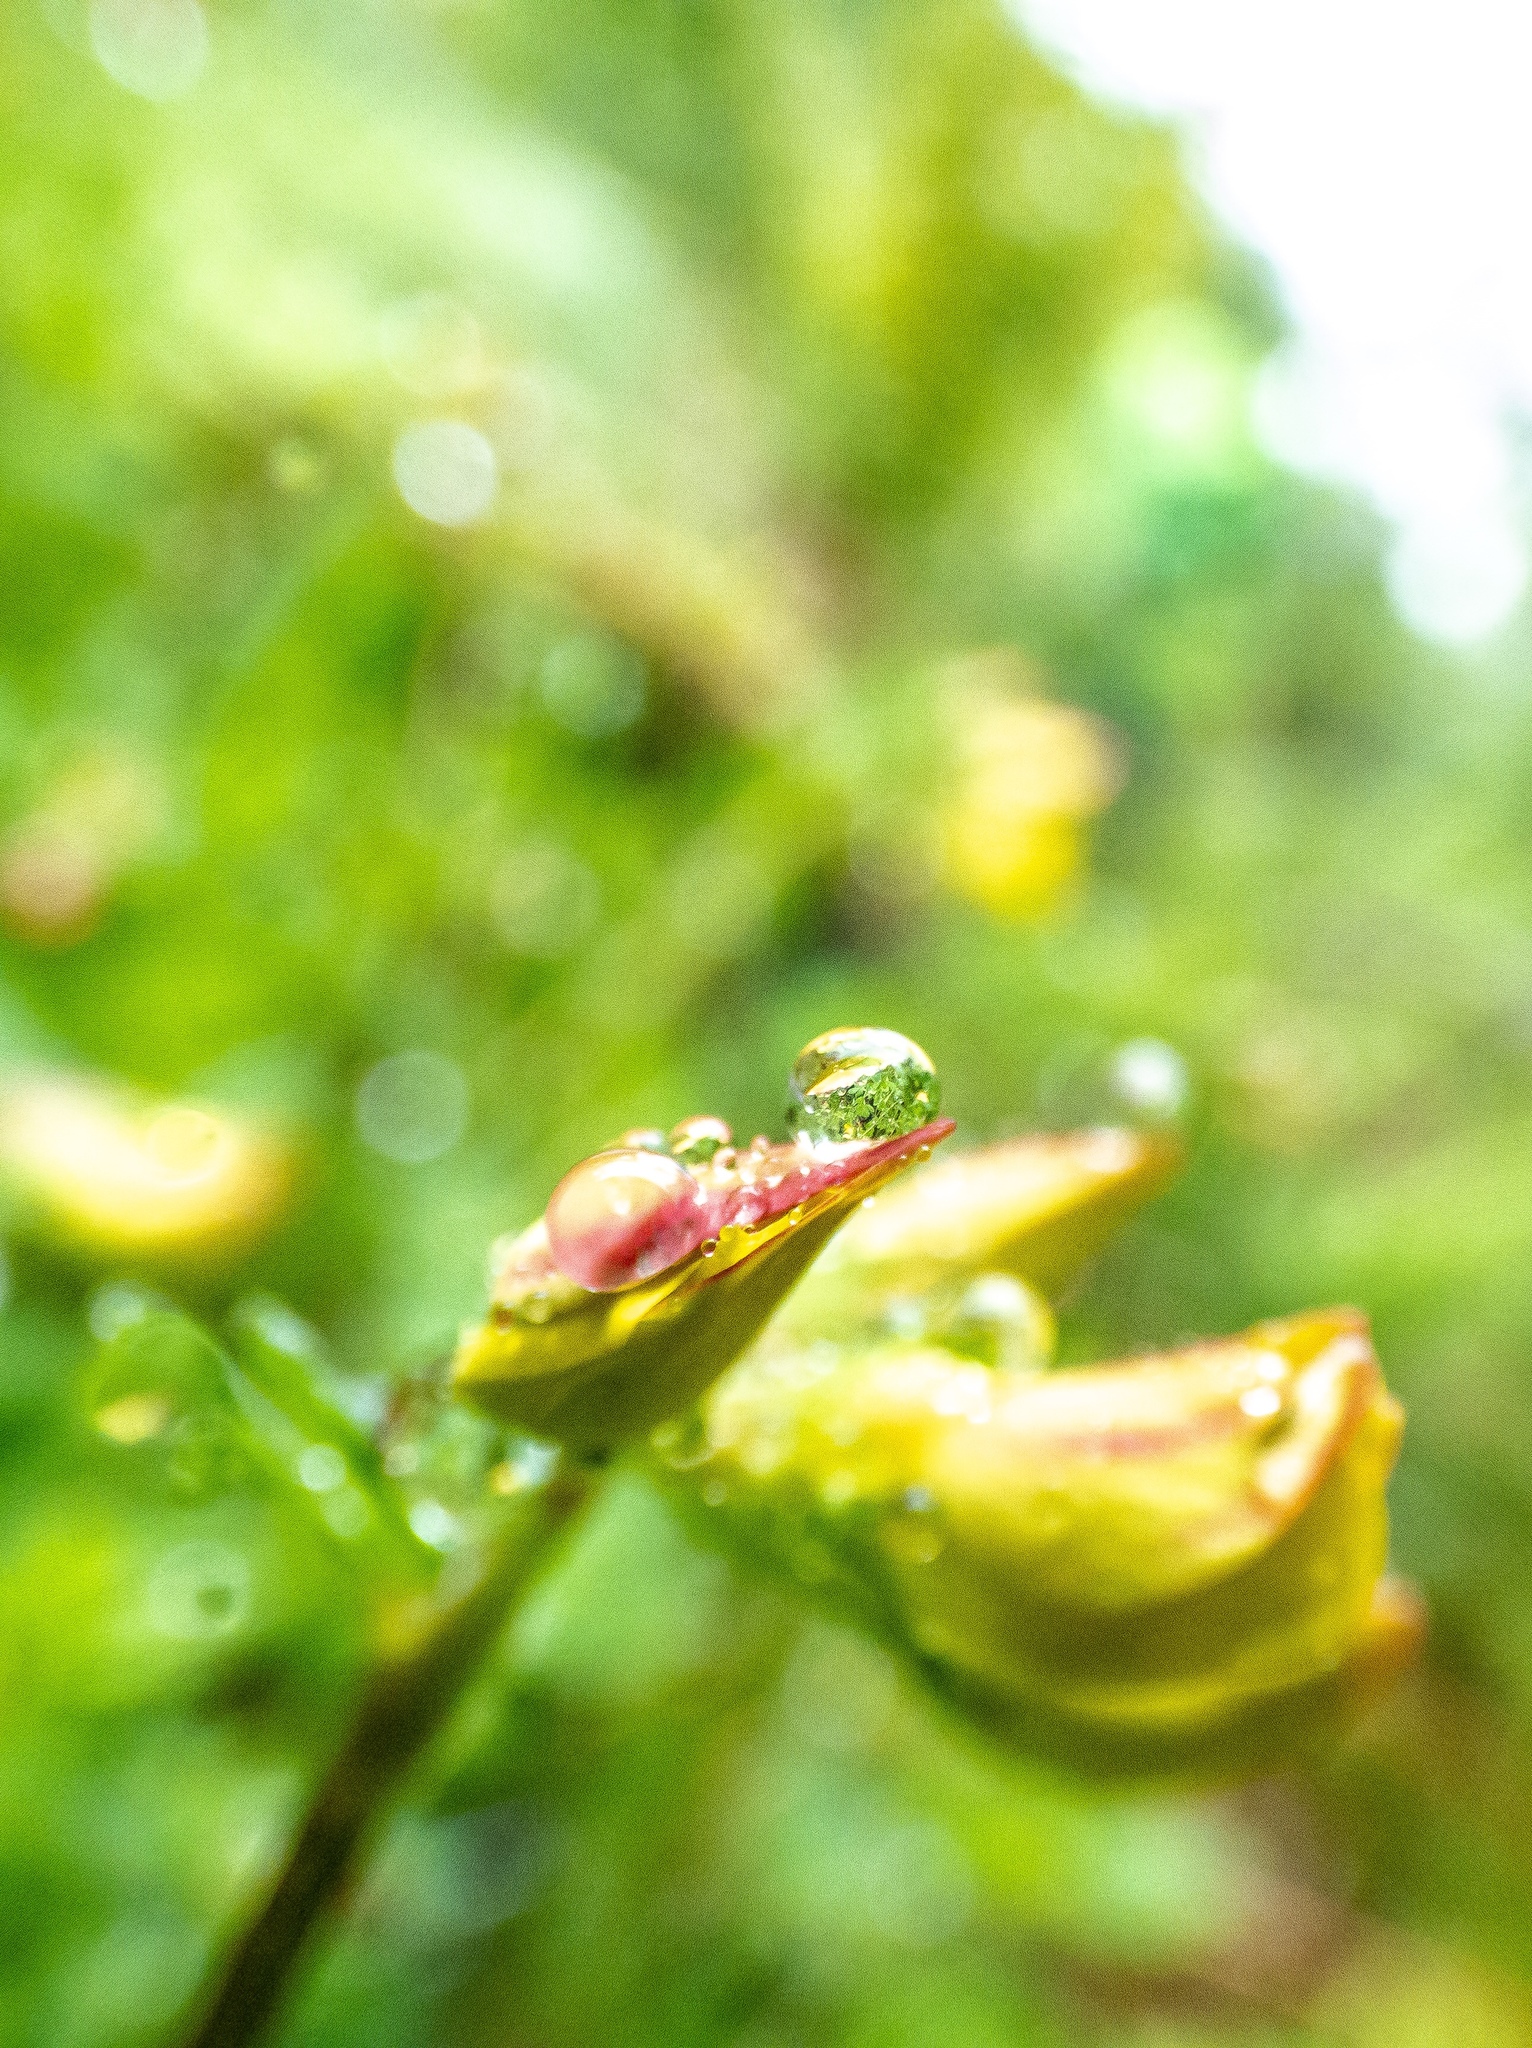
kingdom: Plantae
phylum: Tracheophyta
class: Magnoliopsida
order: Fabales
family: Fabaceae
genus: Lotus
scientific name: Lotus corniculatus
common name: Common bird's-foot-trefoil
